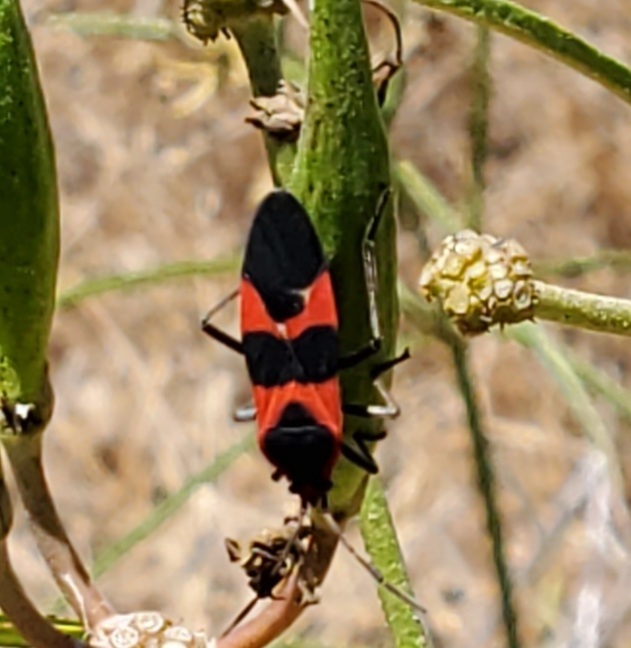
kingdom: Animalia
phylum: Arthropoda
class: Insecta
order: Hemiptera
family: Lygaeidae
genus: Oncopeltus
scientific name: Oncopeltus fasciatus
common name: Large milkweed bug
